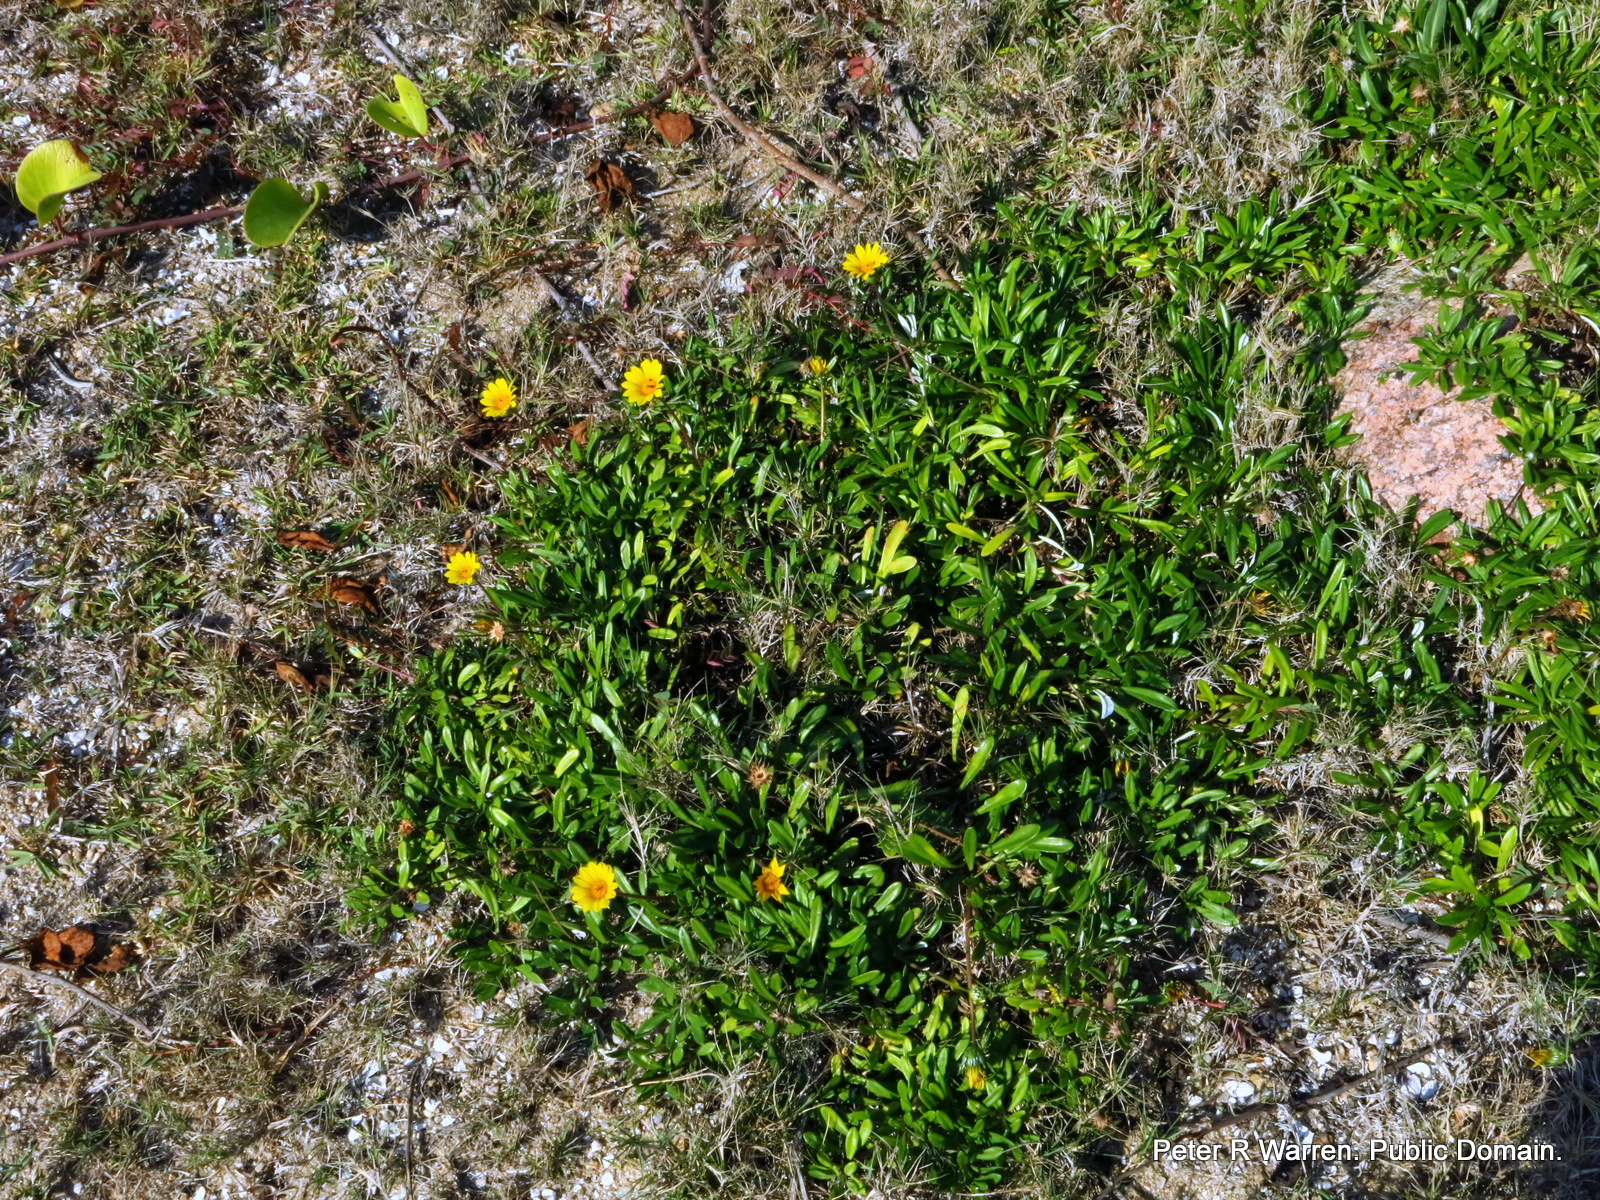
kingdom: Plantae
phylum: Tracheophyta
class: Magnoliopsida
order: Asterales
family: Asteraceae
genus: Gazania
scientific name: Gazania rigens
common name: Treasureflower
